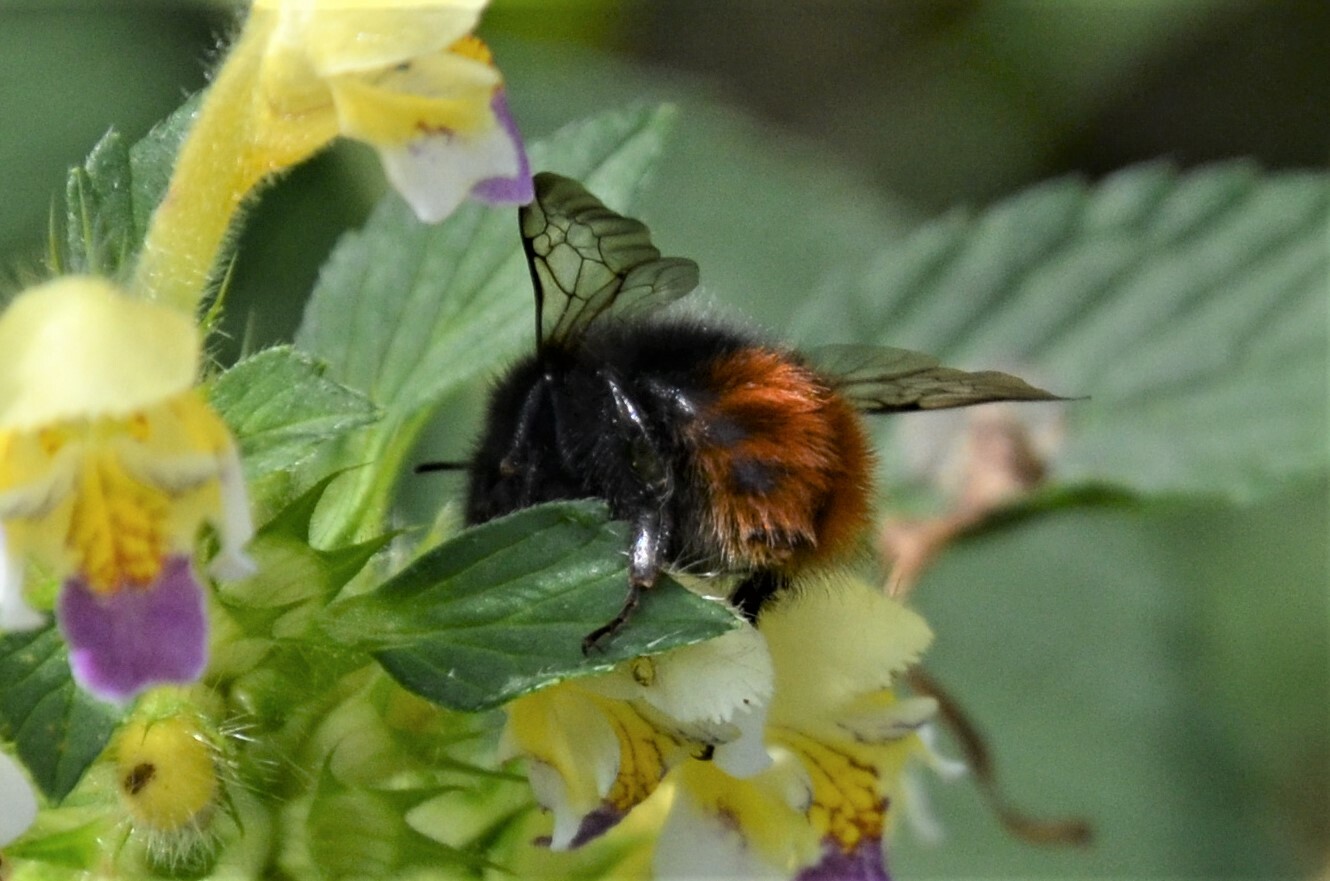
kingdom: Animalia
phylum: Arthropoda
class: Insecta
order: Hymenoptera
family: Apidae
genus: Bombus
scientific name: Bombus wurflenii
